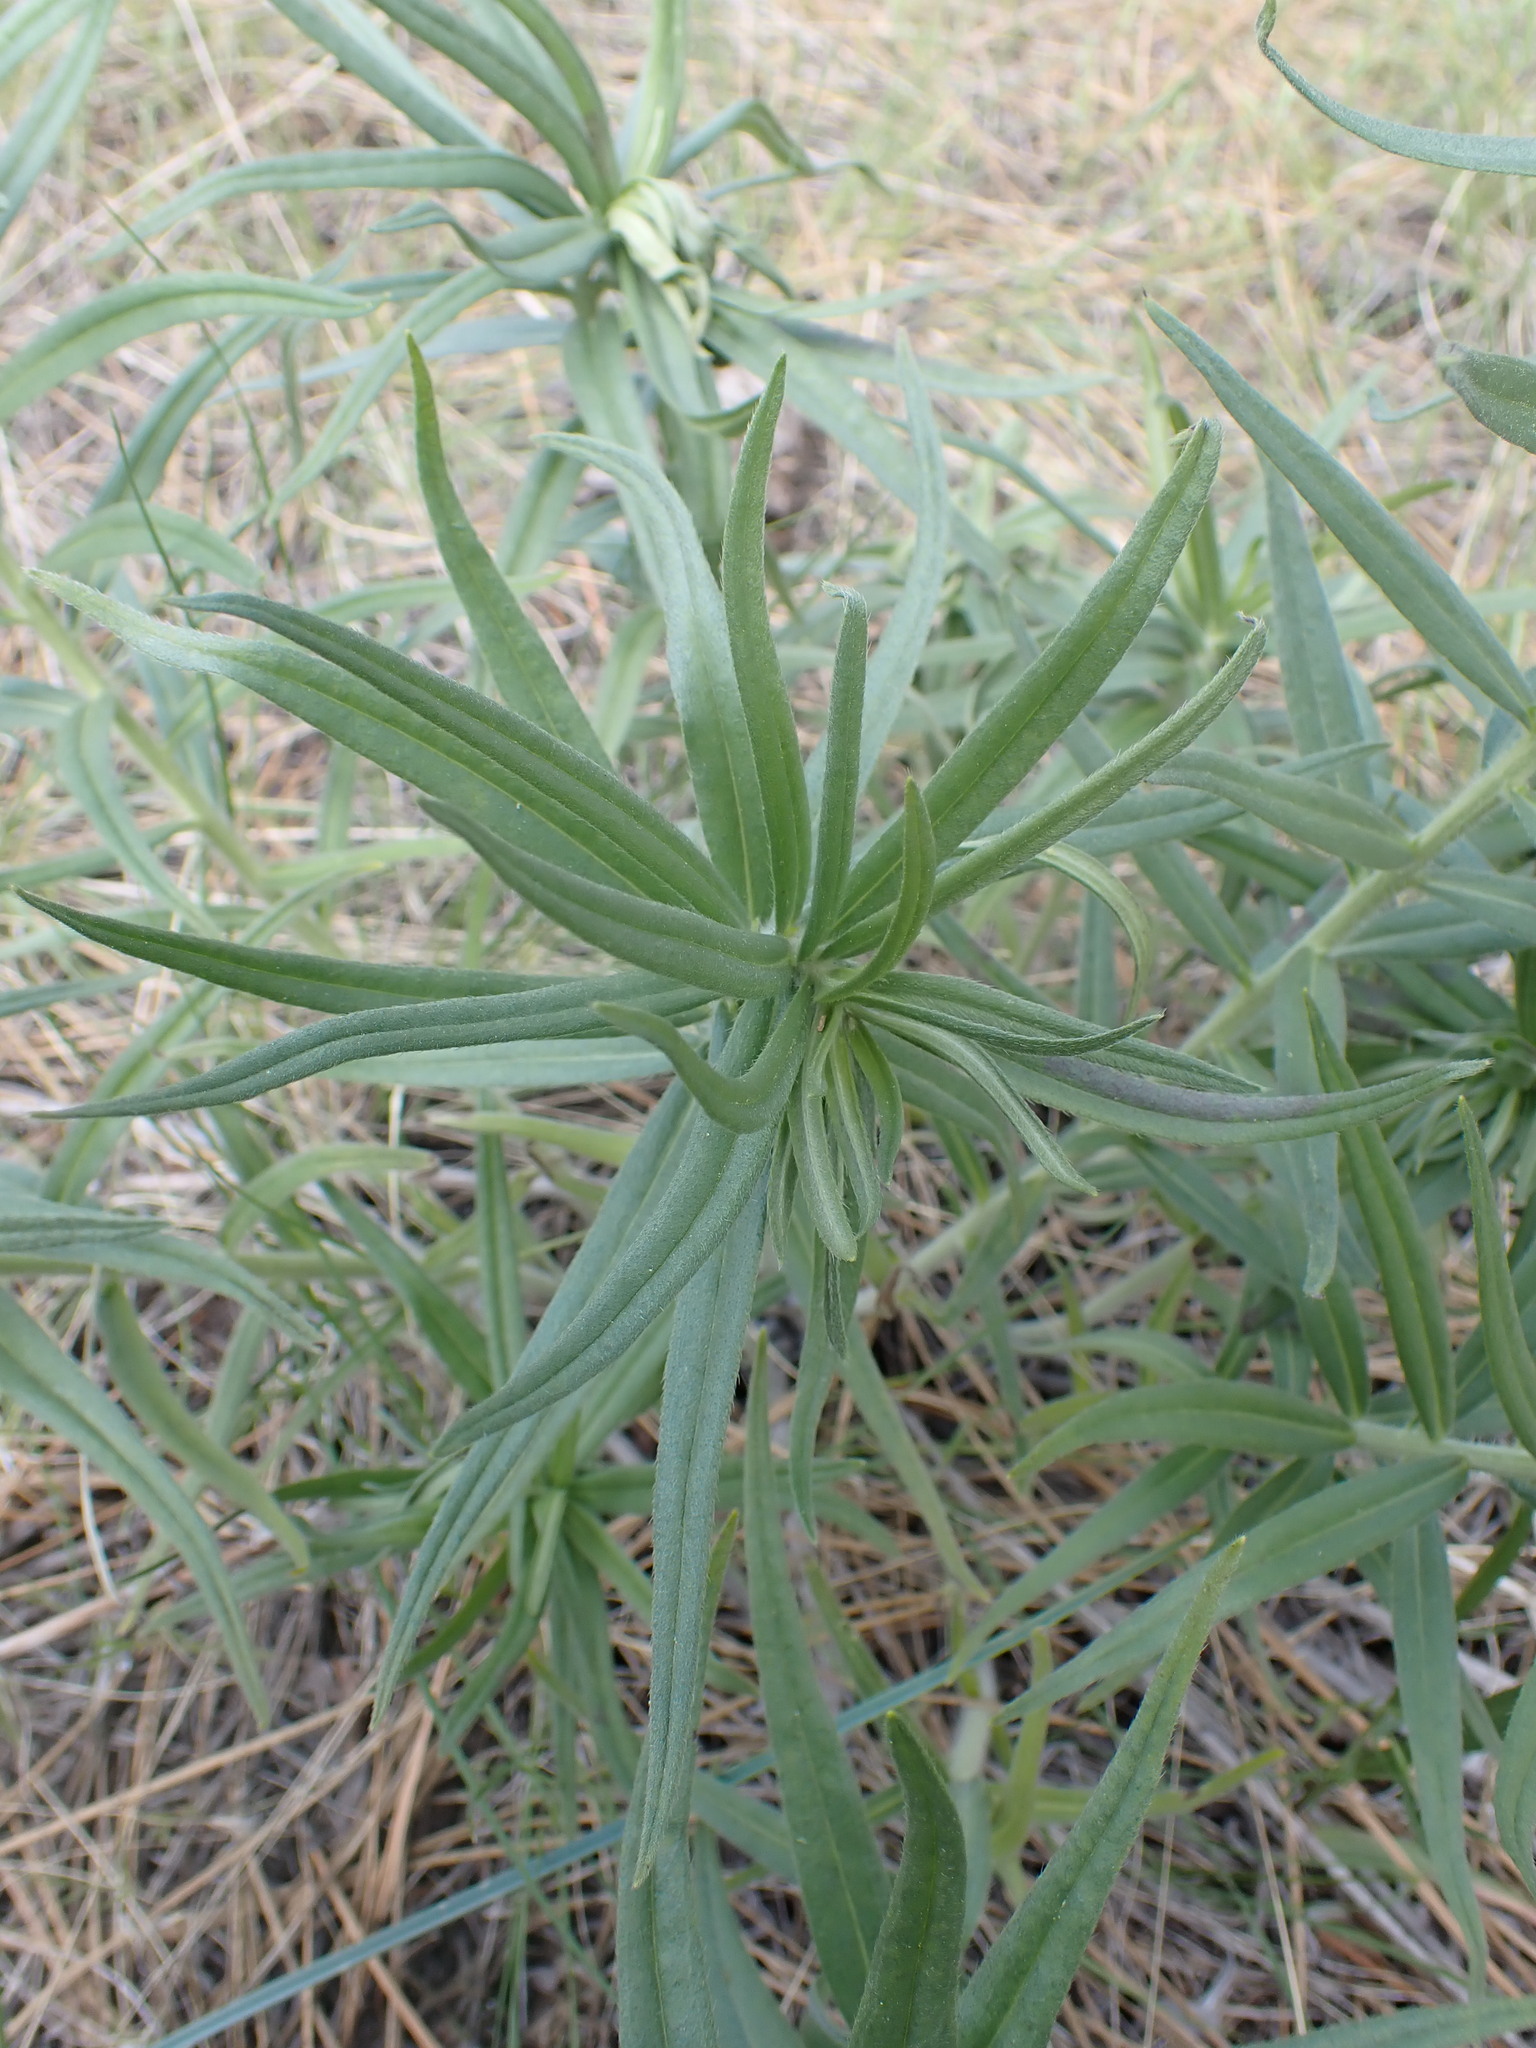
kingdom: Plantae
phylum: Tracheophyta
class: Magnoliopsida
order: Boraginales
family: Boraginaceae
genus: Lithospermum
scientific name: Lithospermum ruderale
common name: Western gromwell
